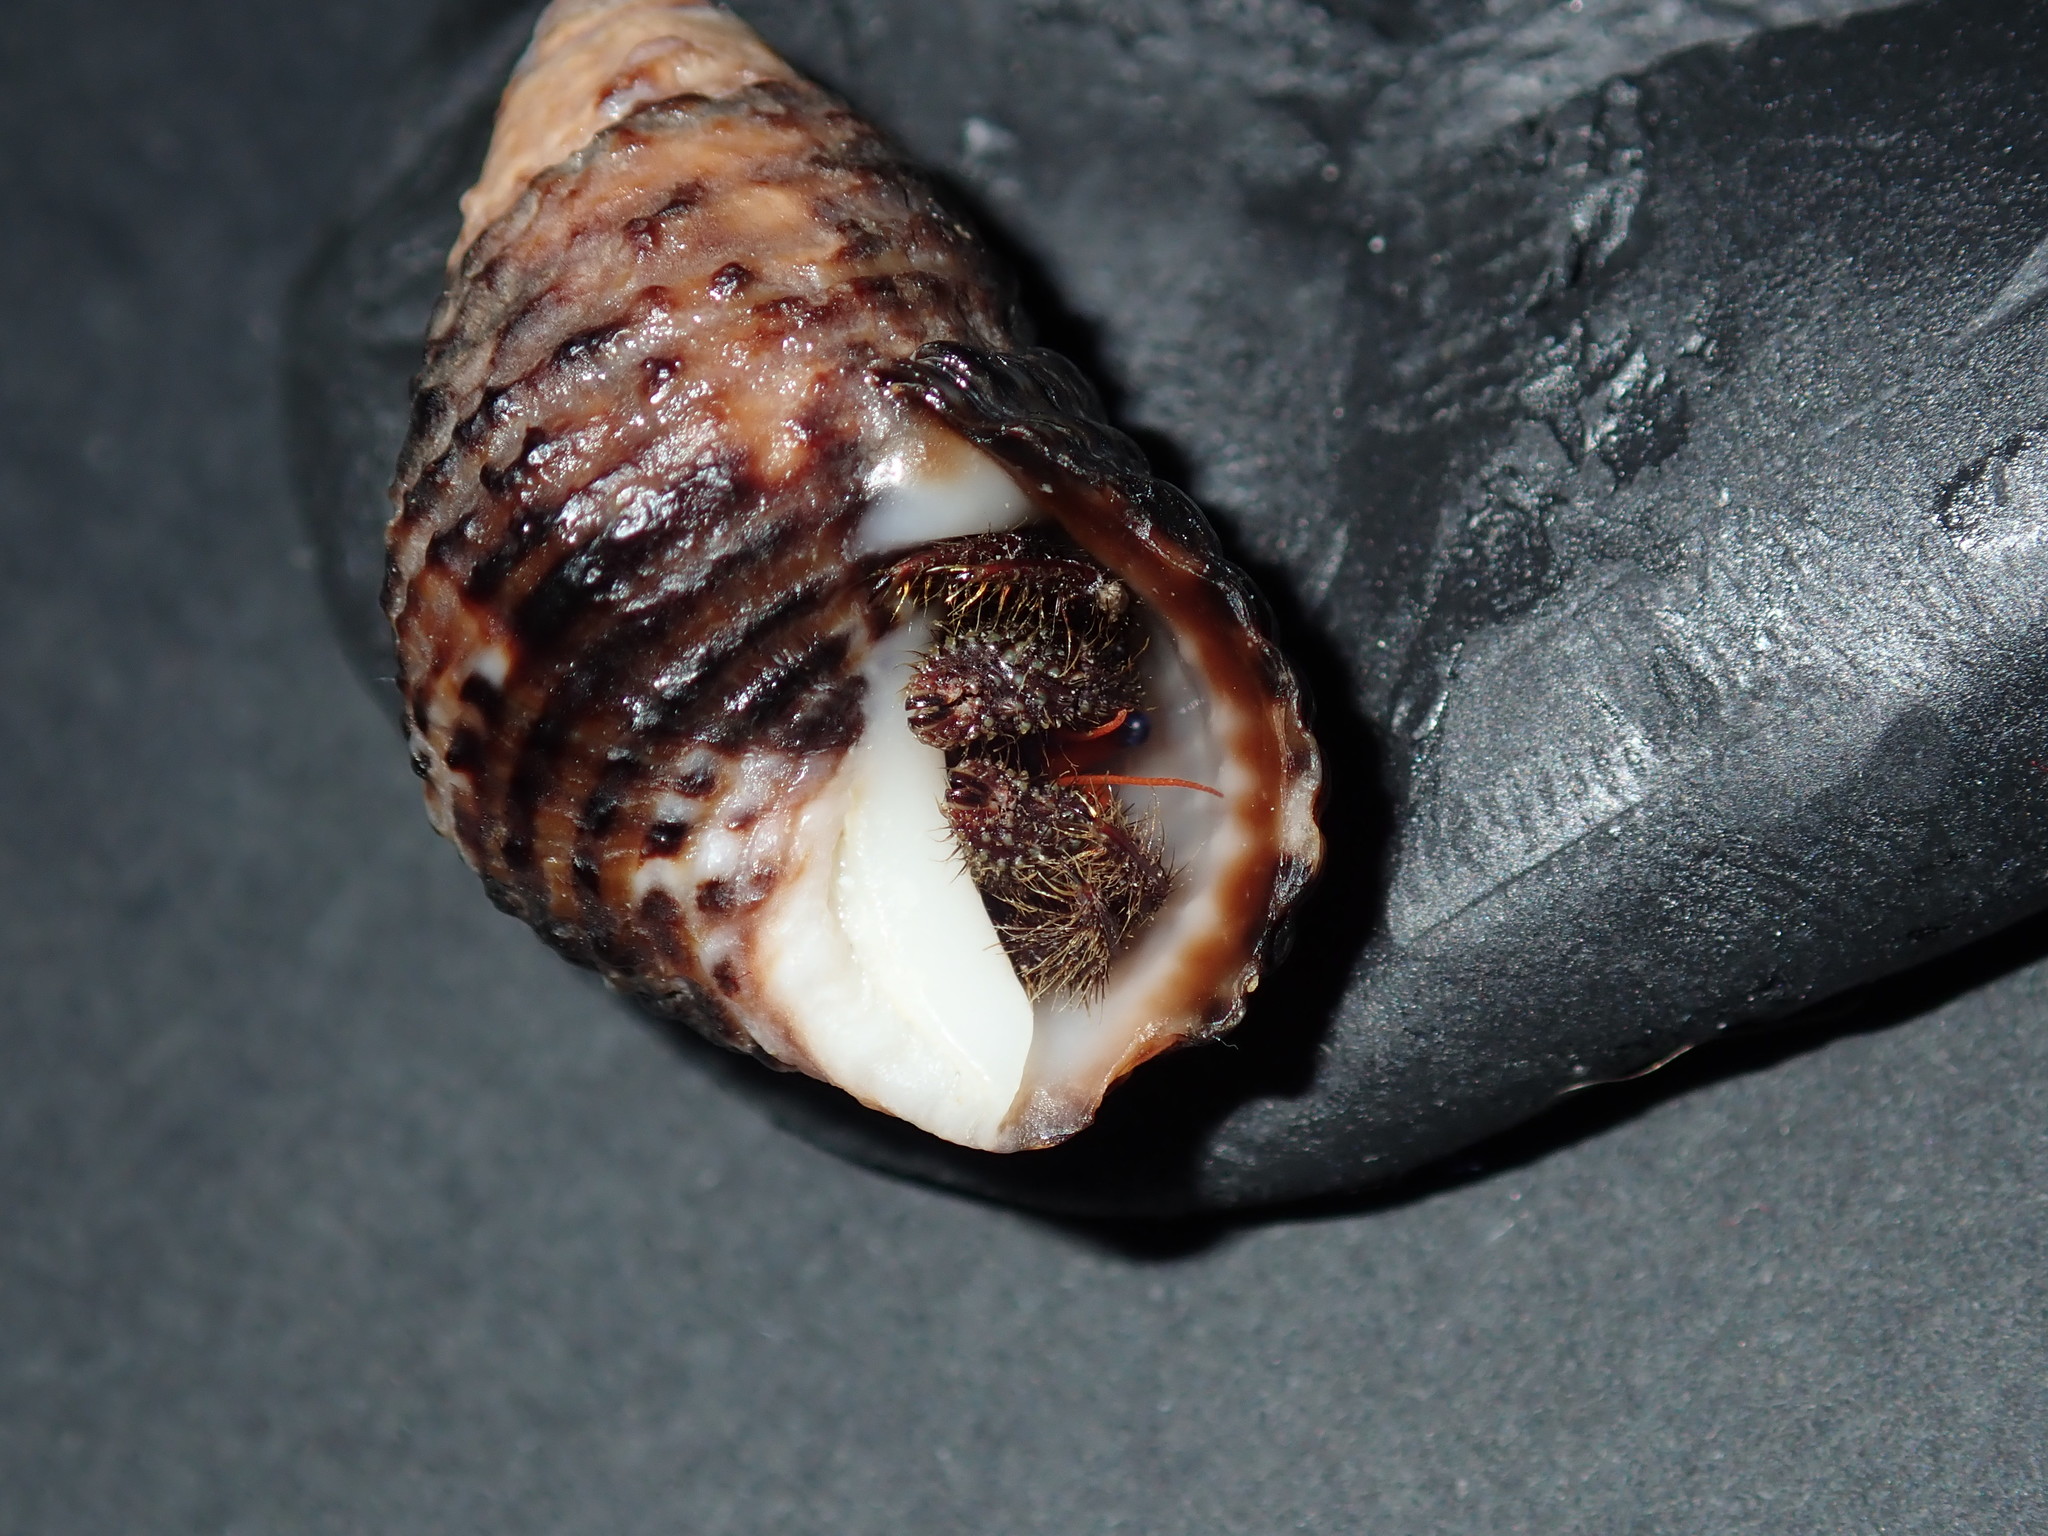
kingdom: Animalia
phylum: Arthropoda
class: Malacostraca
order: Decapoda
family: Diogenidae
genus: Clibanarius
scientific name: Clibanarius corallinus
